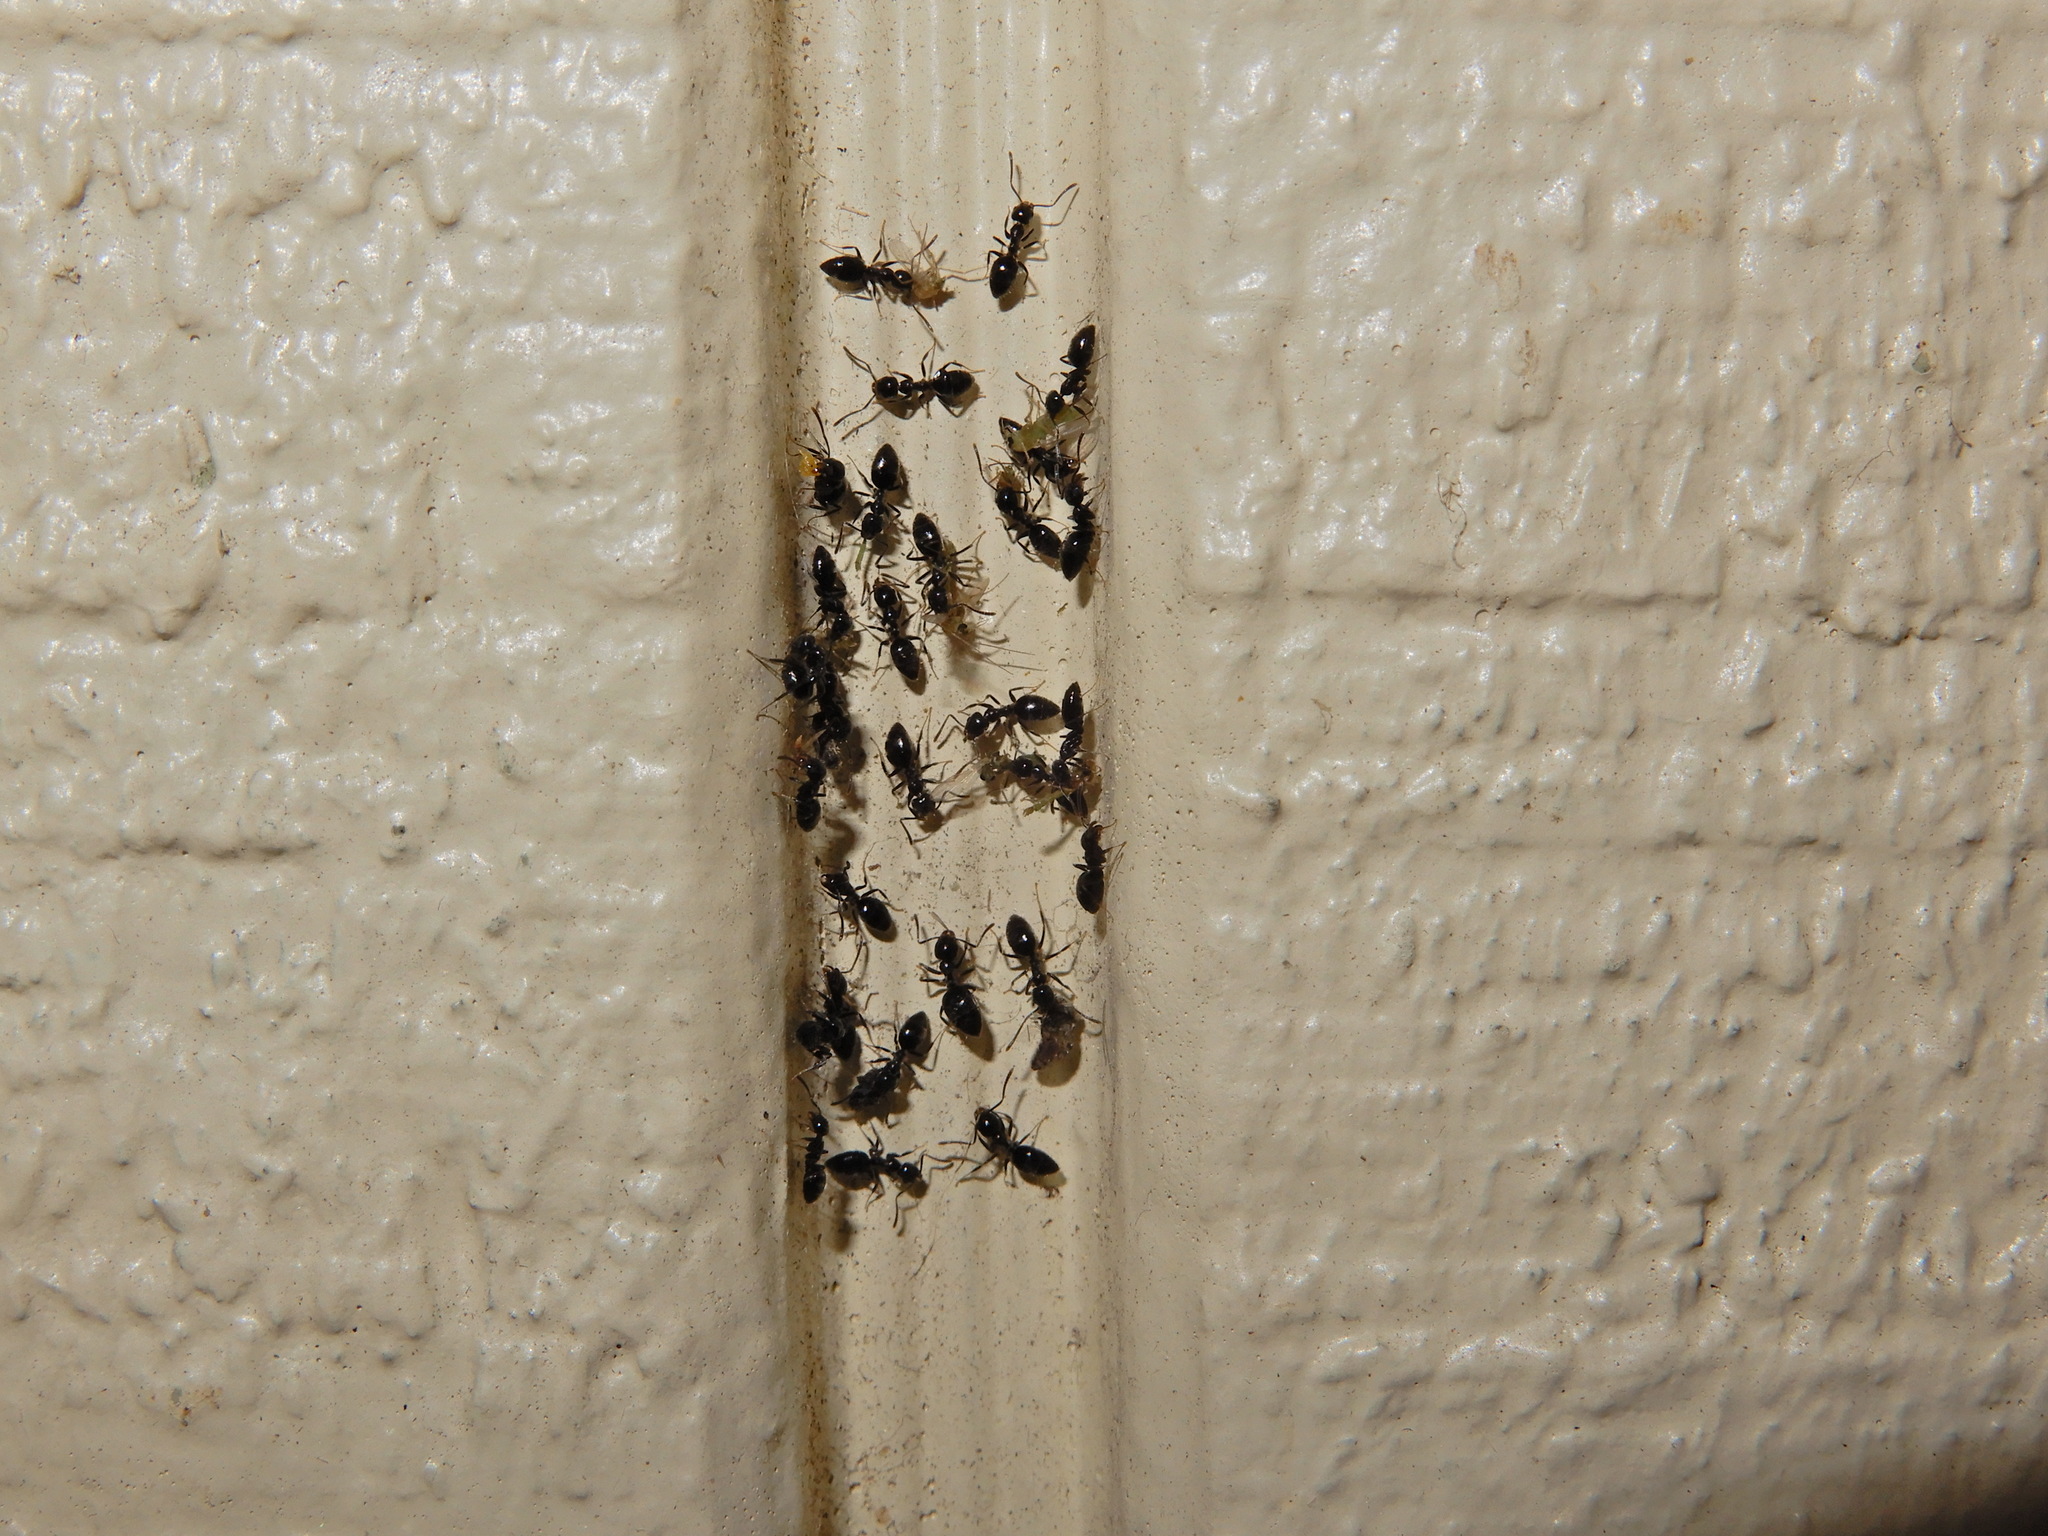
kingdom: Animalia
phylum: Arthropoda
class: Insecta
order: Hymenoptera
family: Formicidae
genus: Technomyrmex
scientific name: Technomyrmex jocosus
